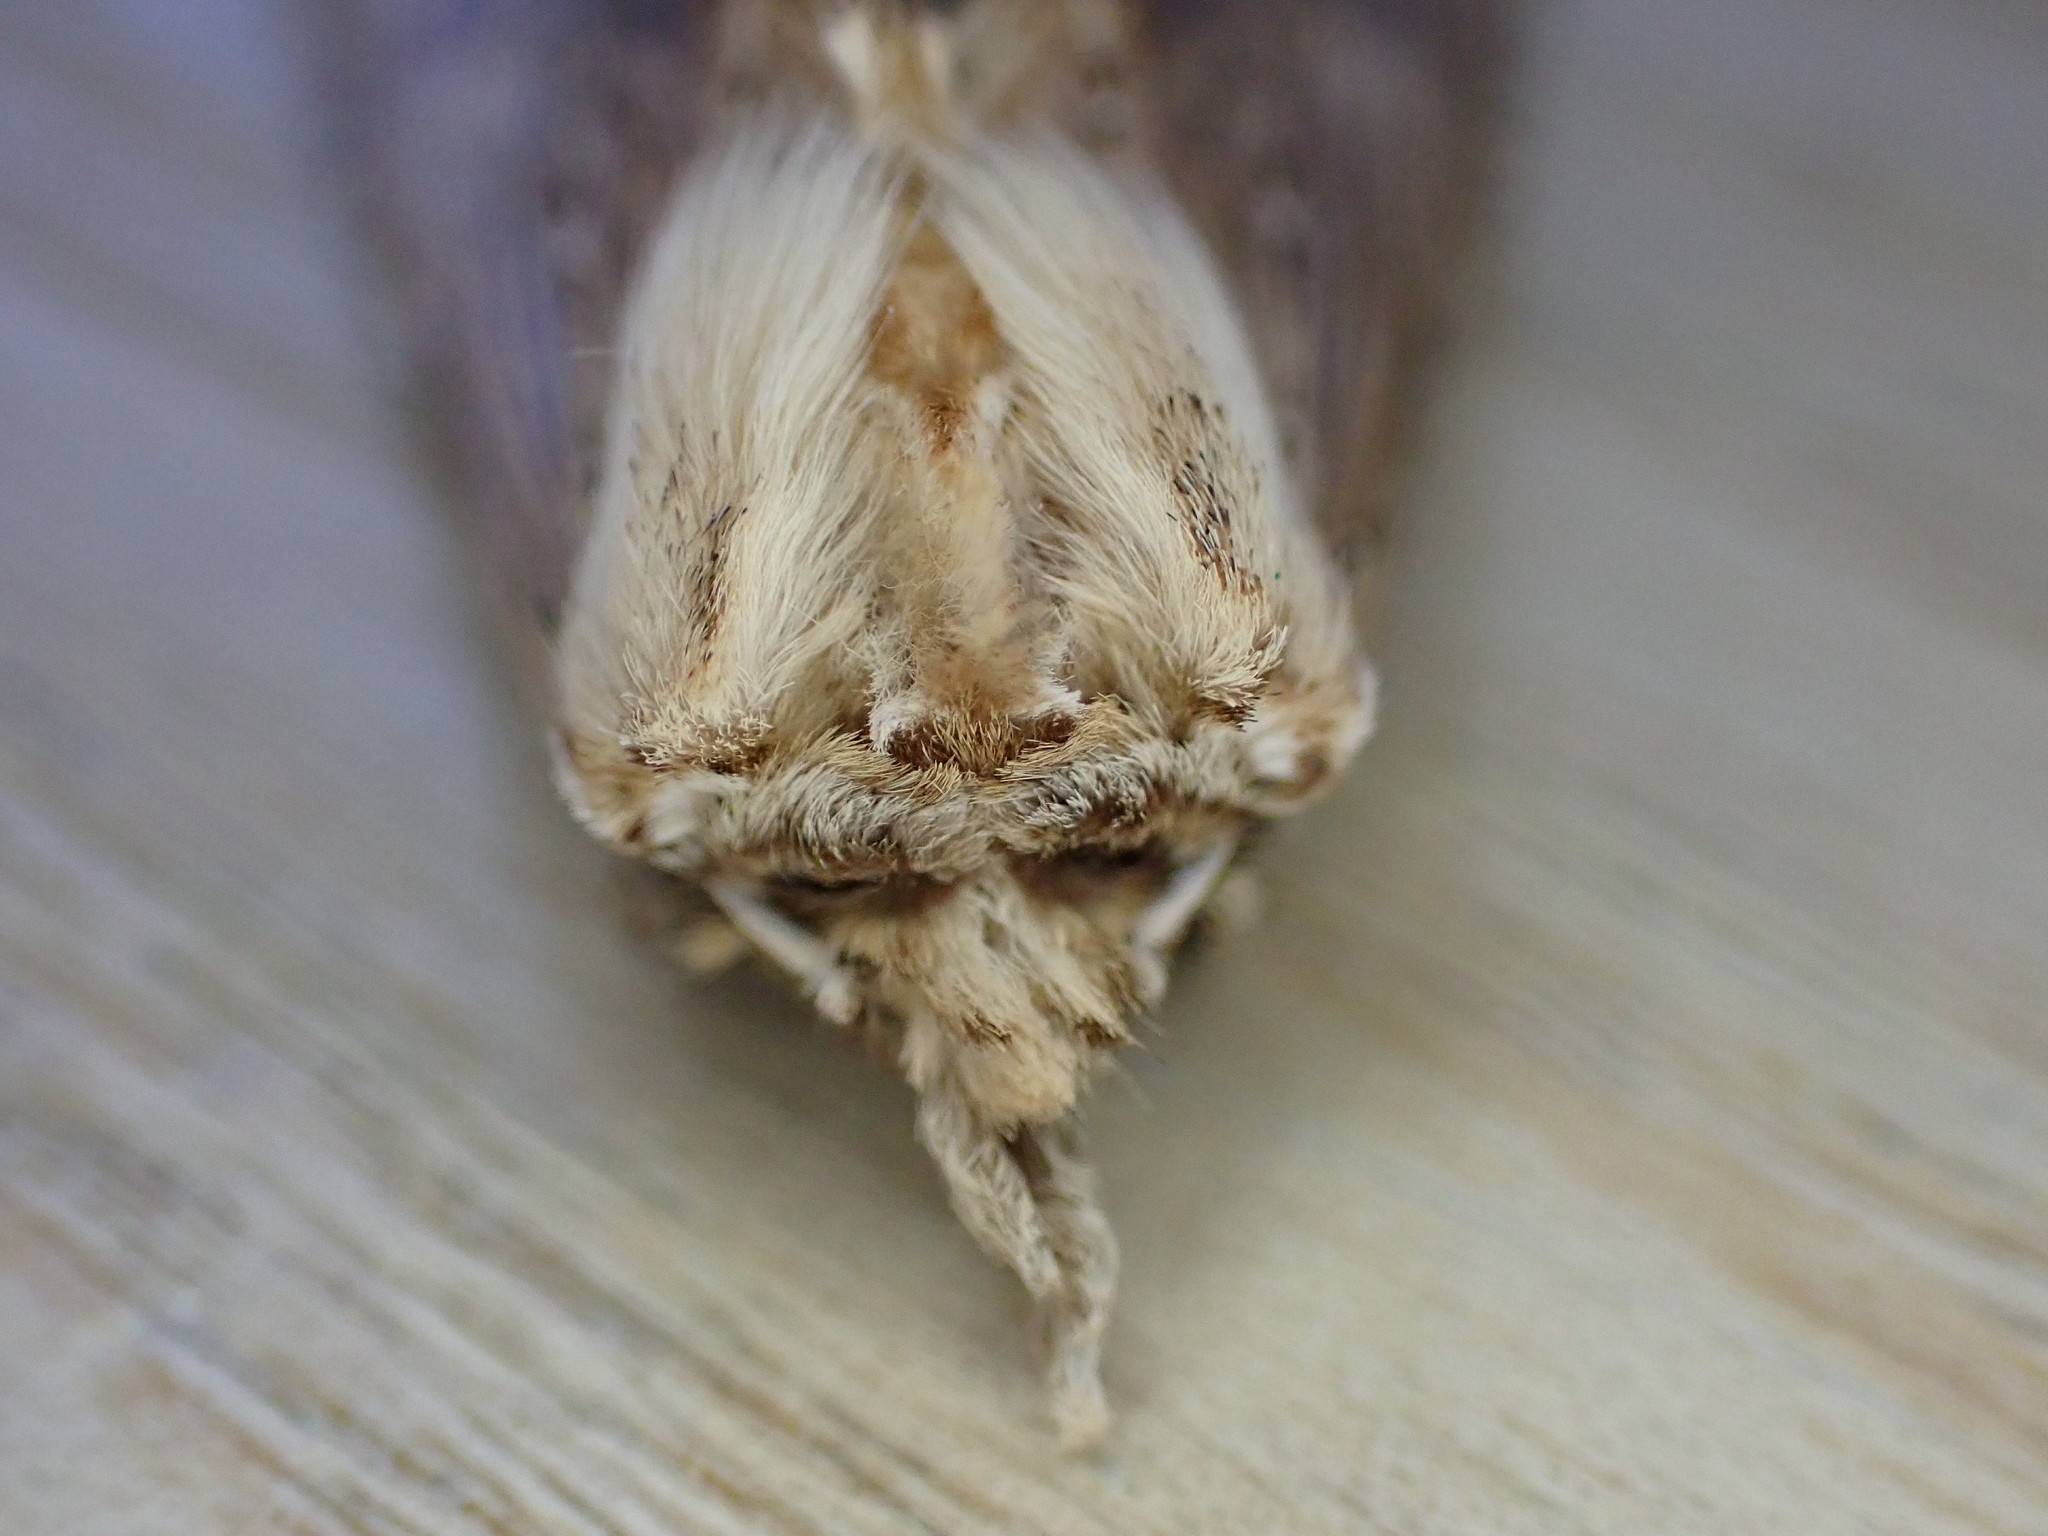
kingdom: Animalia
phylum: Arthropoda
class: Insecta
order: Lepidoptera
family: Notodontidae
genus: Pterostoma
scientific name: Pterostoma palpina
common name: Pale prominent
